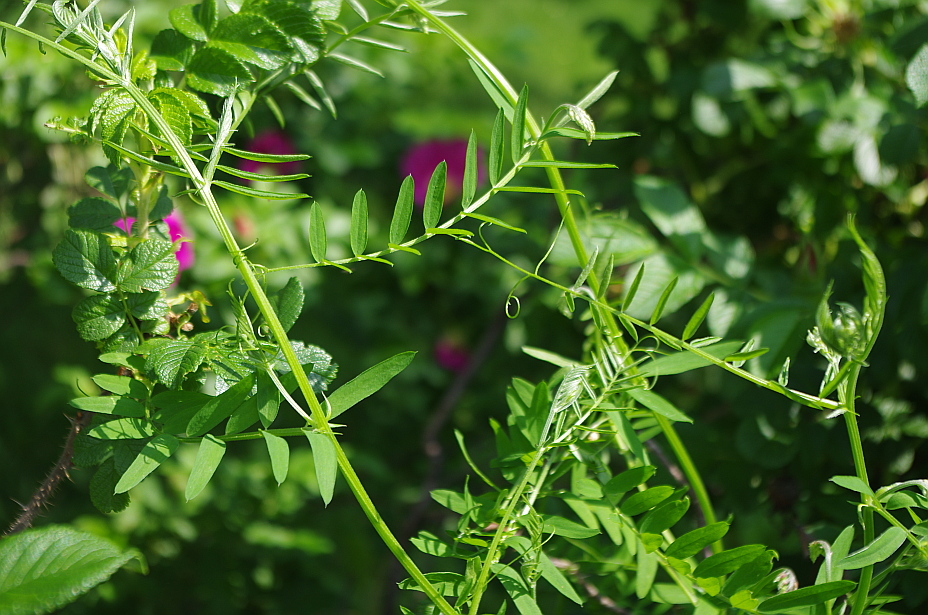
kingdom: Plantae
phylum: Tracheophyta
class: Magnoliopsida
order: Fabales
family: Fabaceae
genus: Vicia
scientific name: Vicia cracca
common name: Bird vetch
